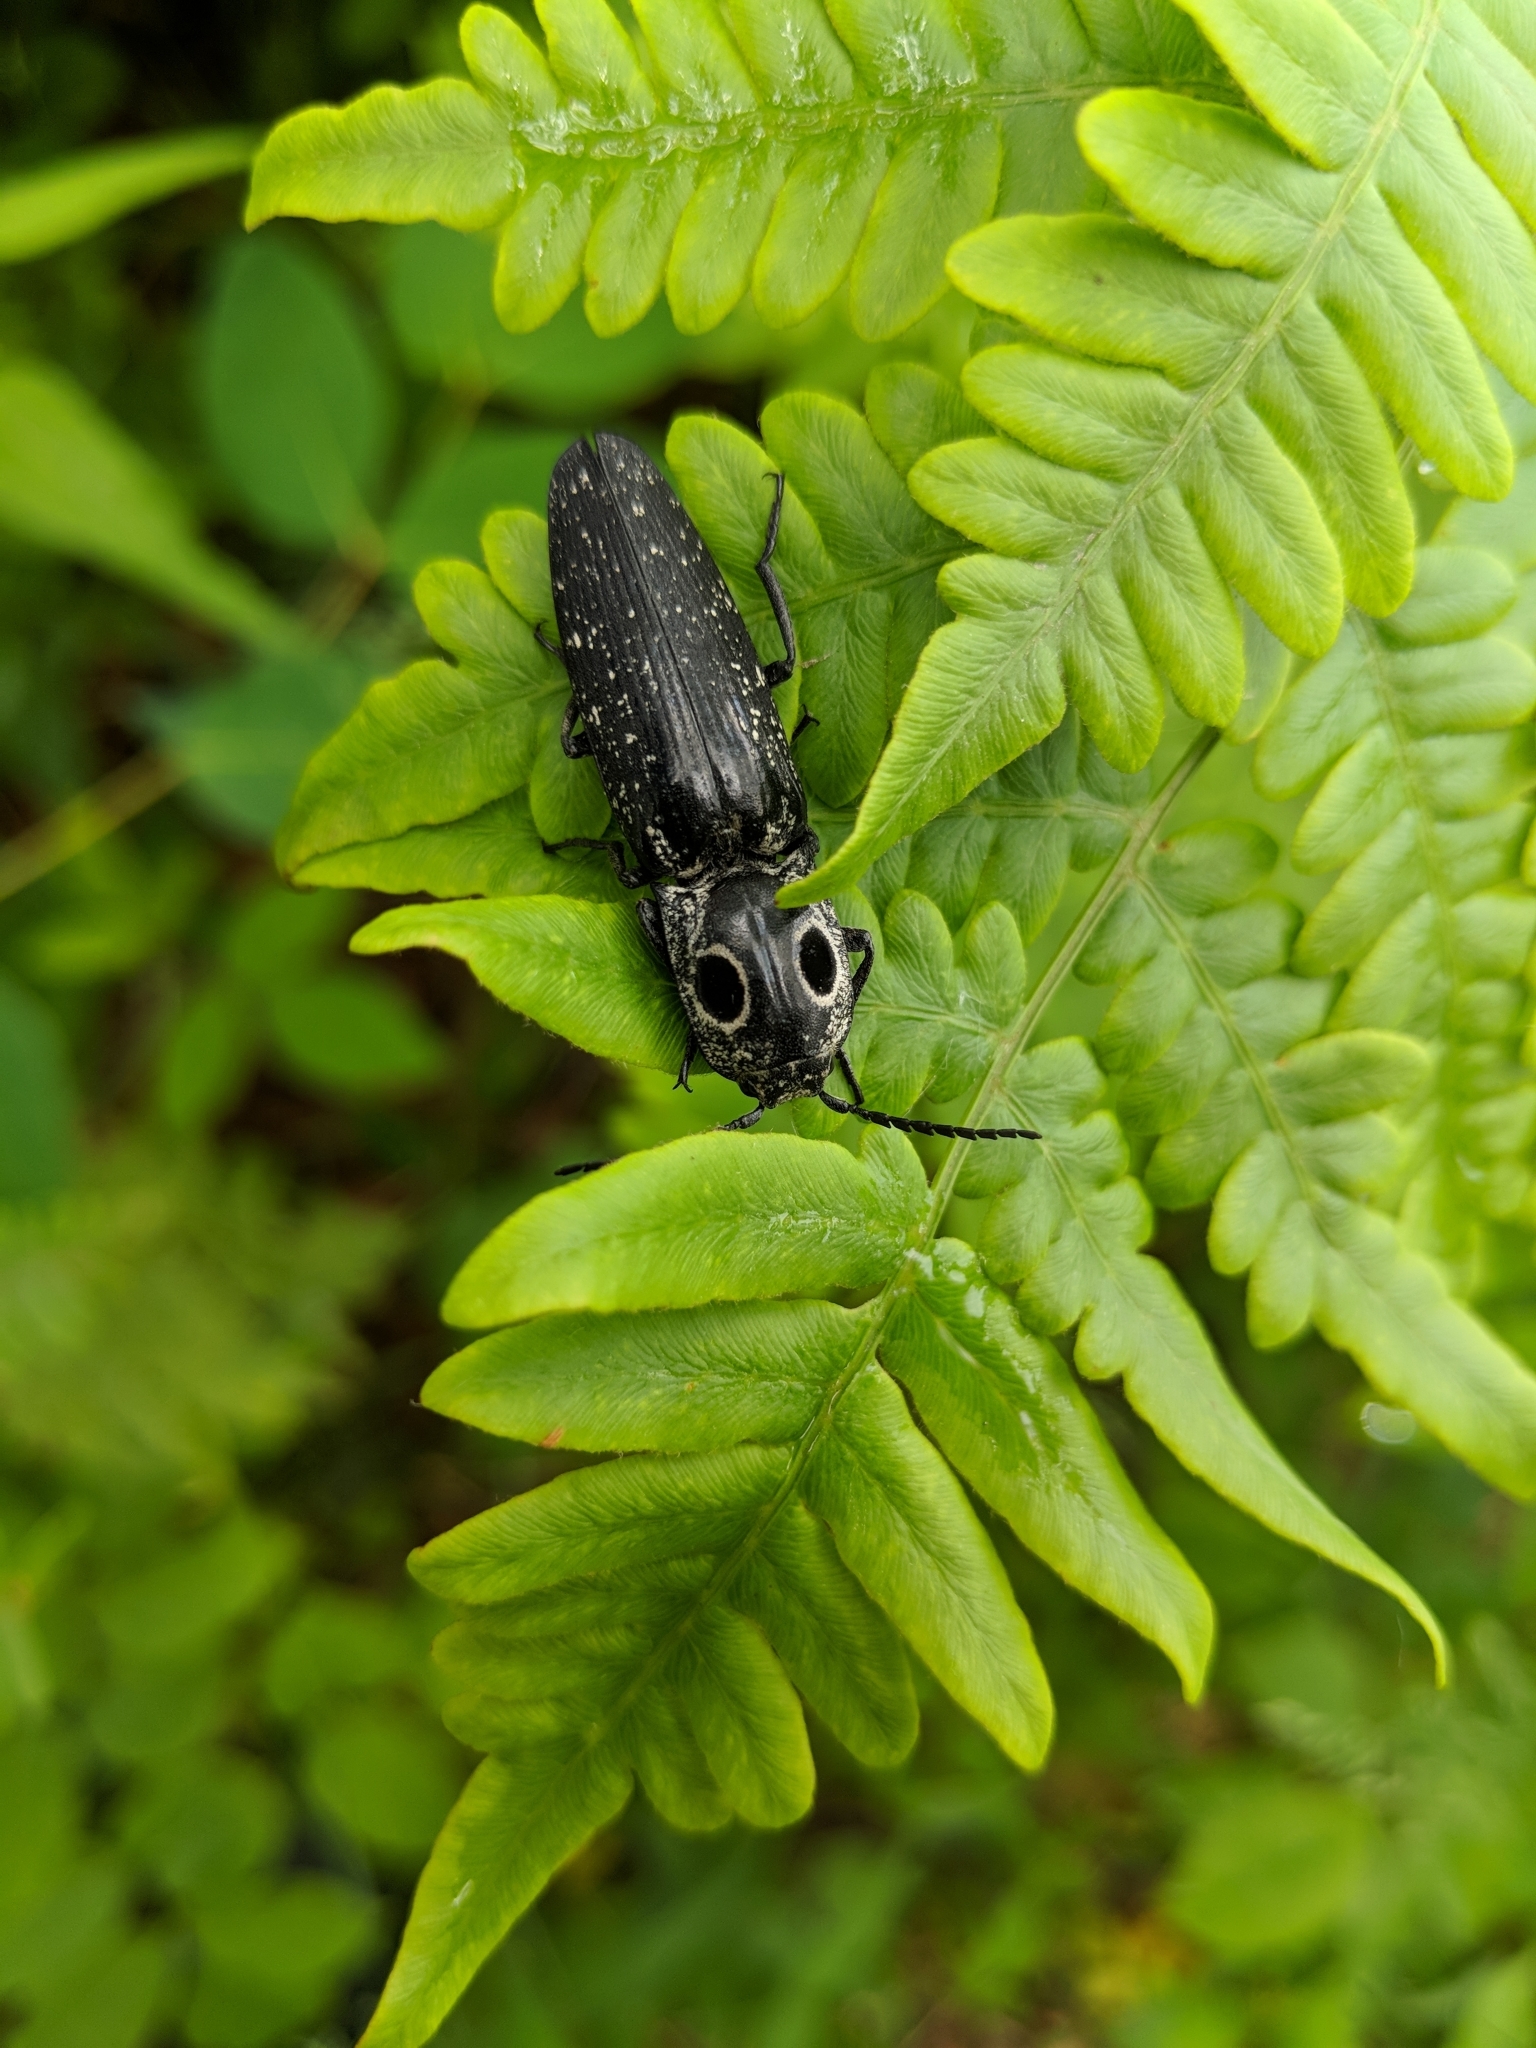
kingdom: Animalia
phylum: Arthropoda
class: Insecta
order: Coleoptera
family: Elateridae
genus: Alaus
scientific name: Alaus oculatus
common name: Eastern eyed click beetle
